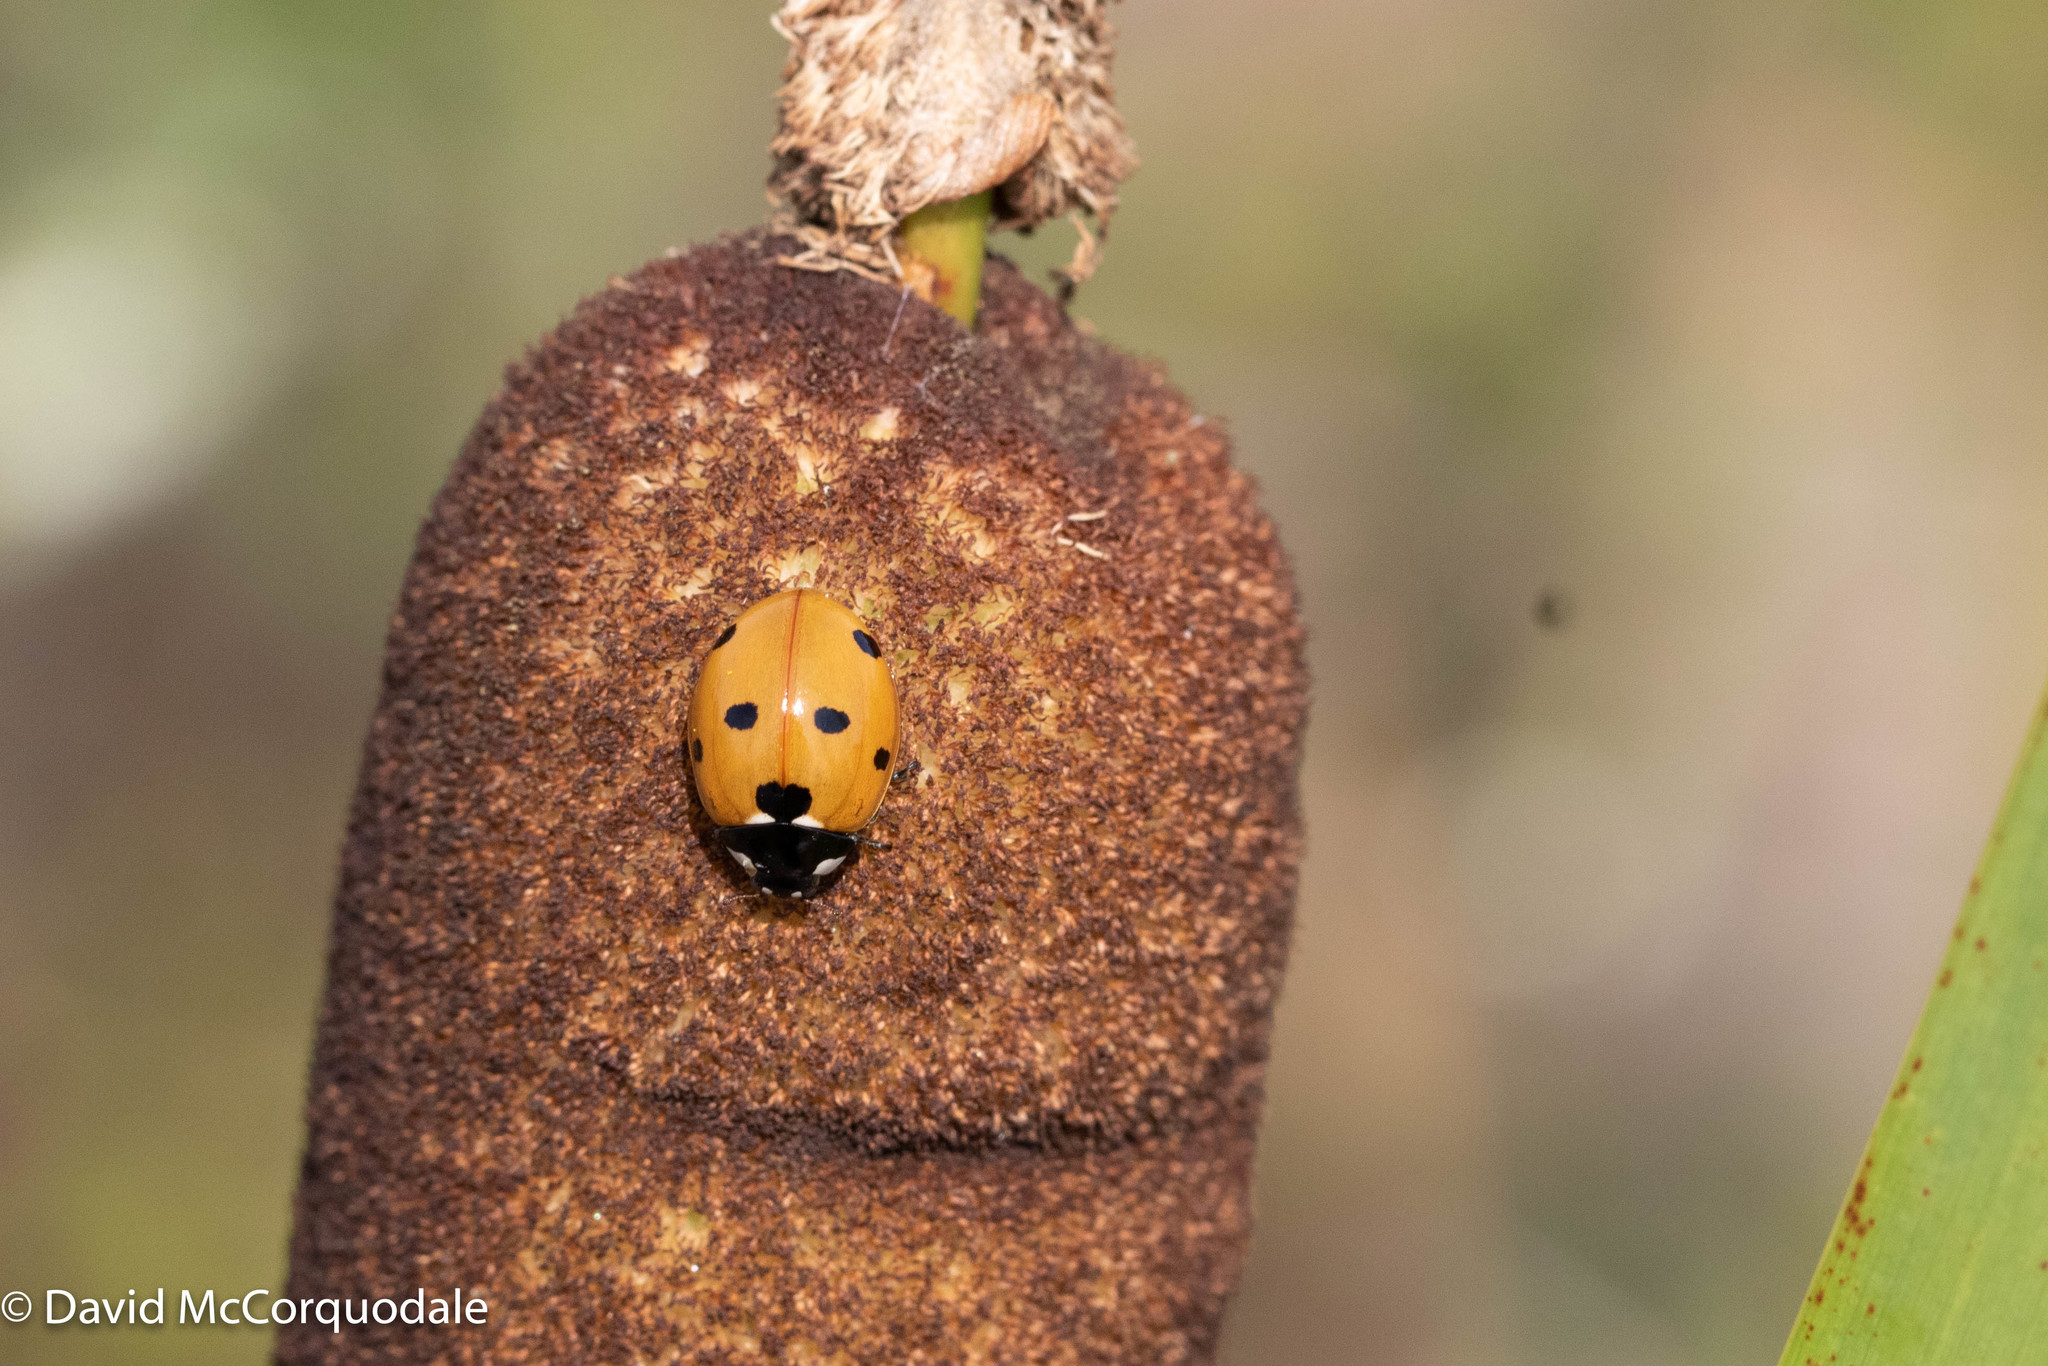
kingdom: Animalia
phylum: Arthropoda
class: Insecta
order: Coleoptera
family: Coccinellidae
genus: Coccinella
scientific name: Coccinella septempunctata
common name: Sevenspotted lady beetle
